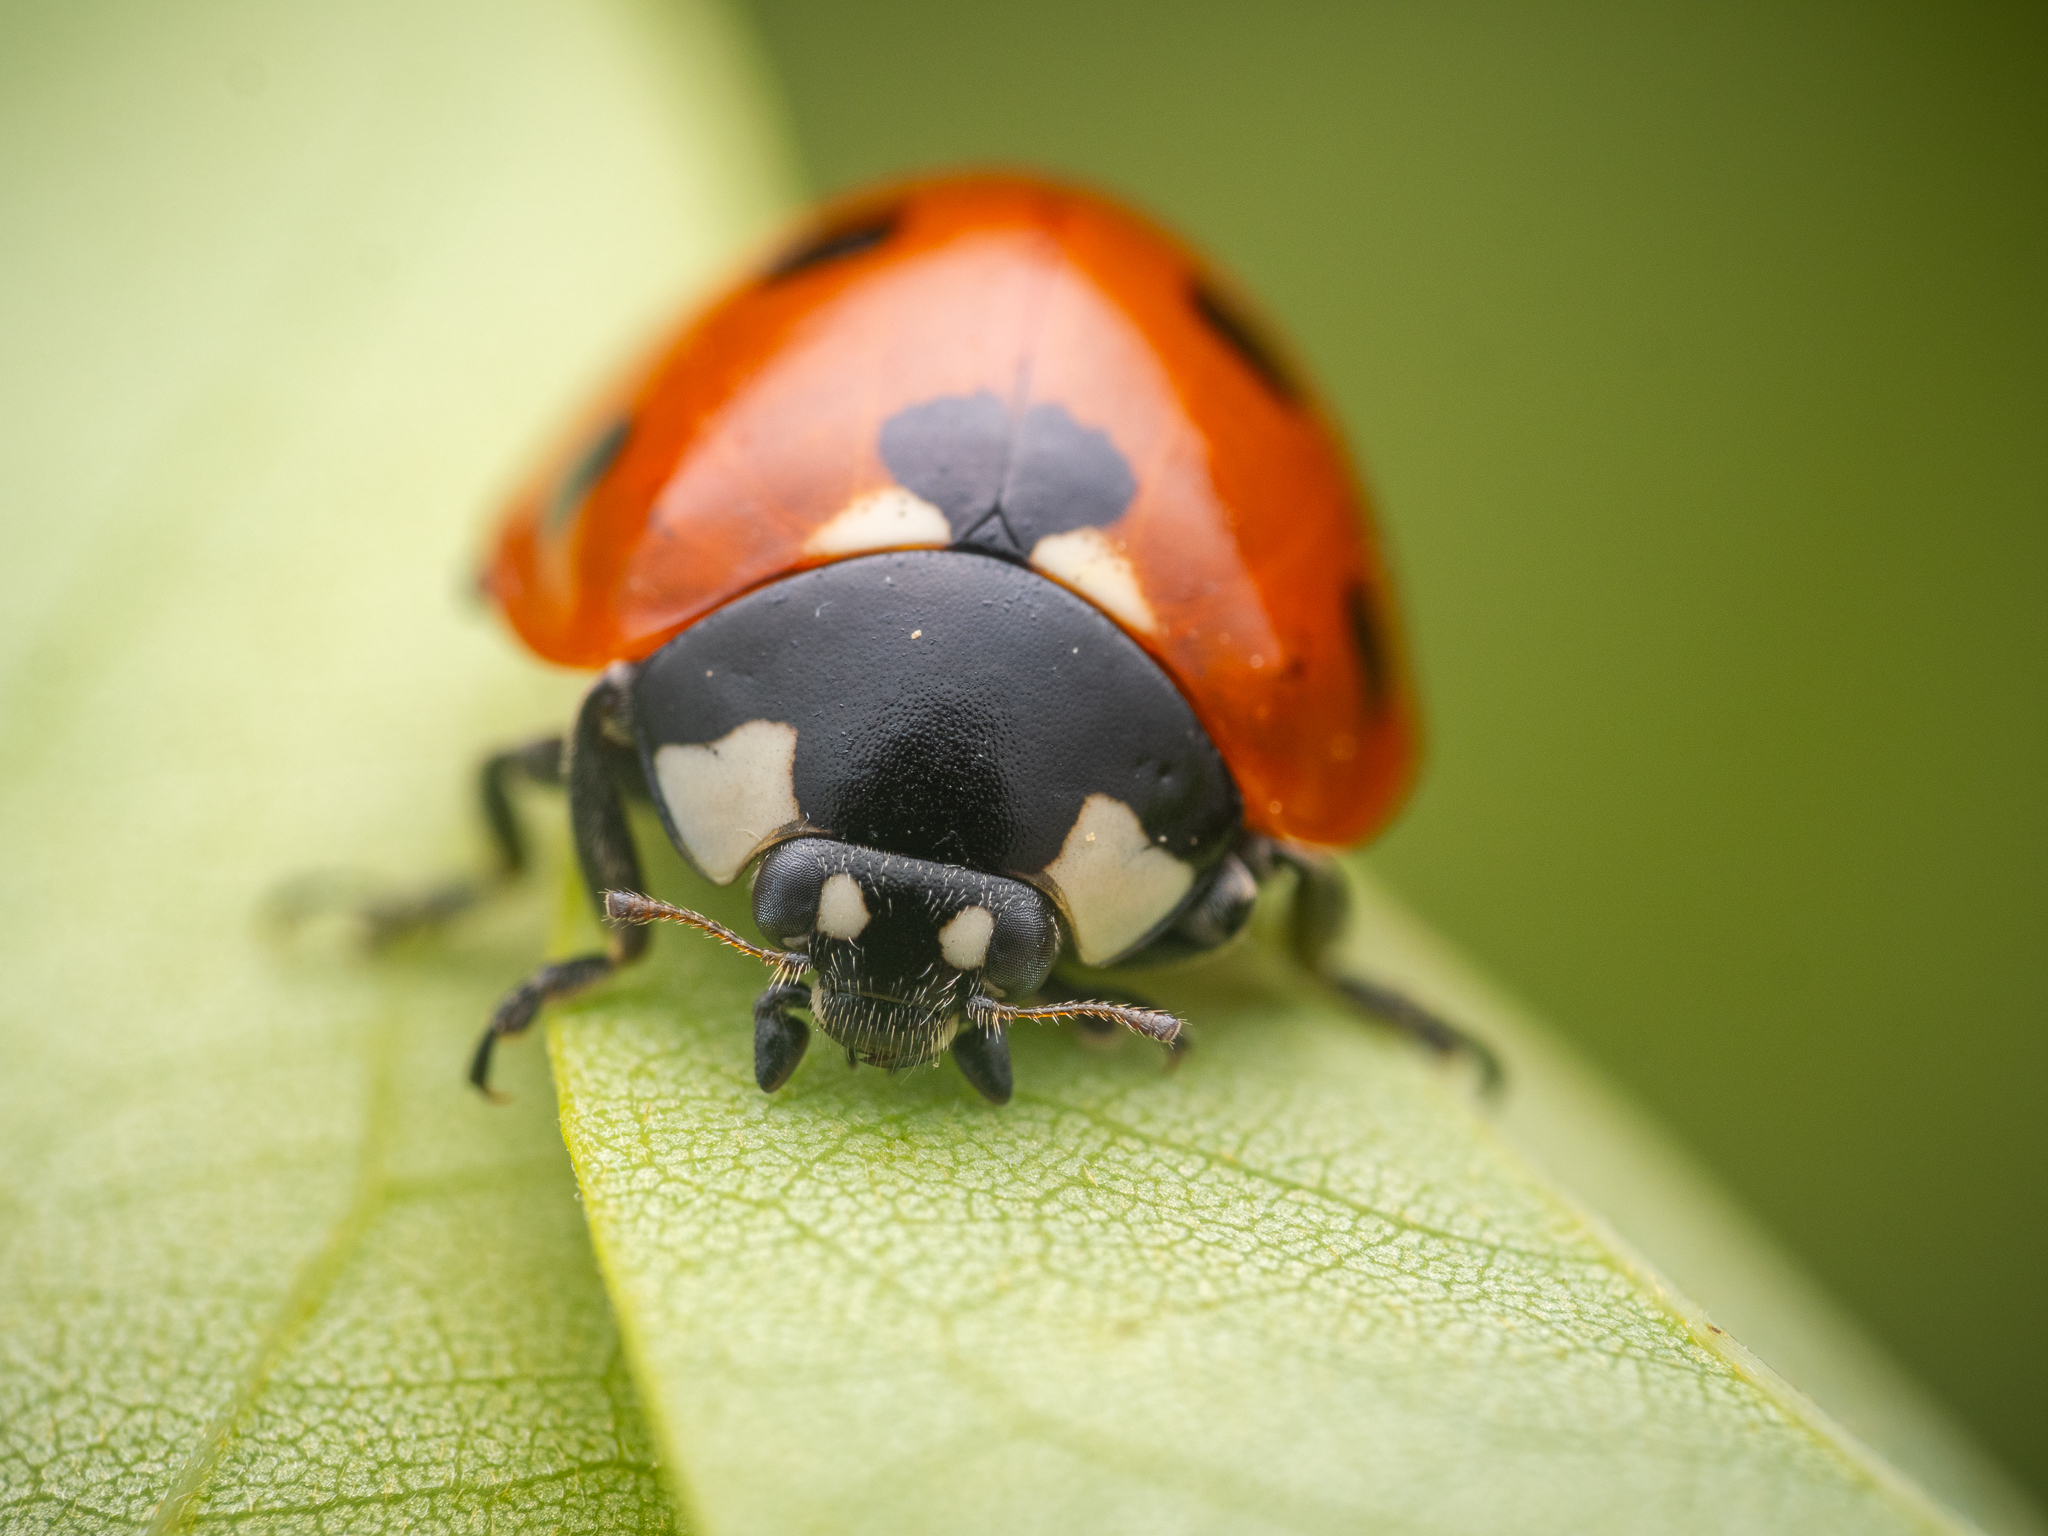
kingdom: Animalia
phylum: Arthropoda
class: Insecta
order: Coleoptera
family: Coccinellidae
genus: Coccinella
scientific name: Coccinella septempunctata
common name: Sevenspotted lady beetle
